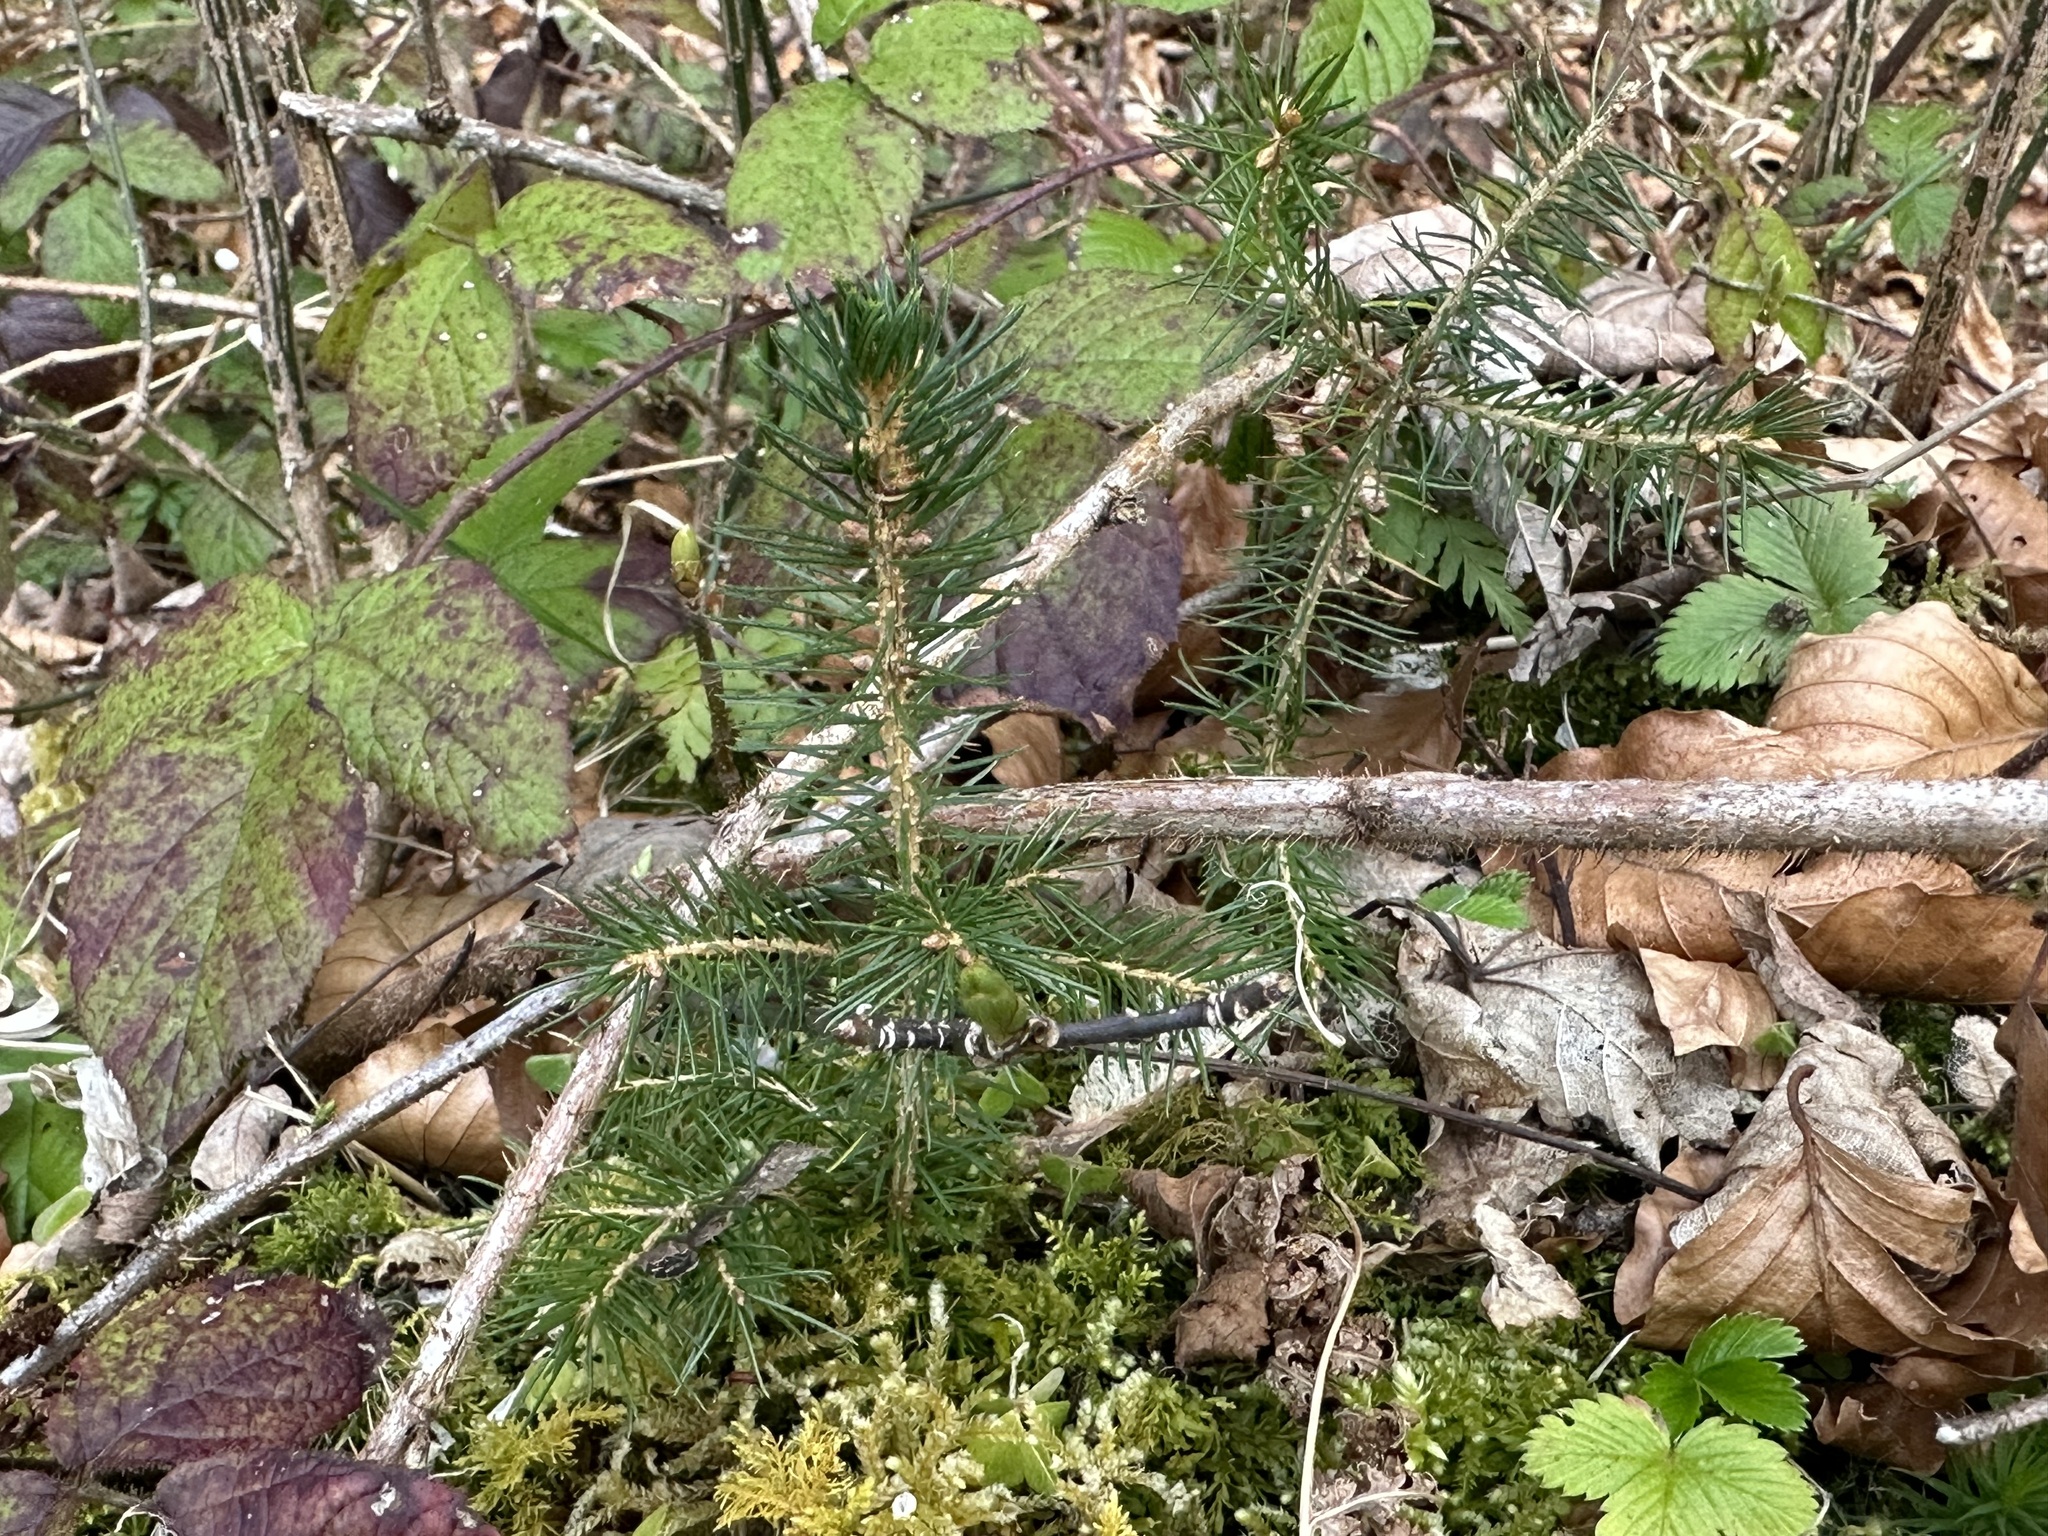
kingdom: Plantae
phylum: Tracheophyta
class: Pinopsida
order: Pinales
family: Pinaceae
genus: Picea
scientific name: Picea abies
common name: Norway spruce
